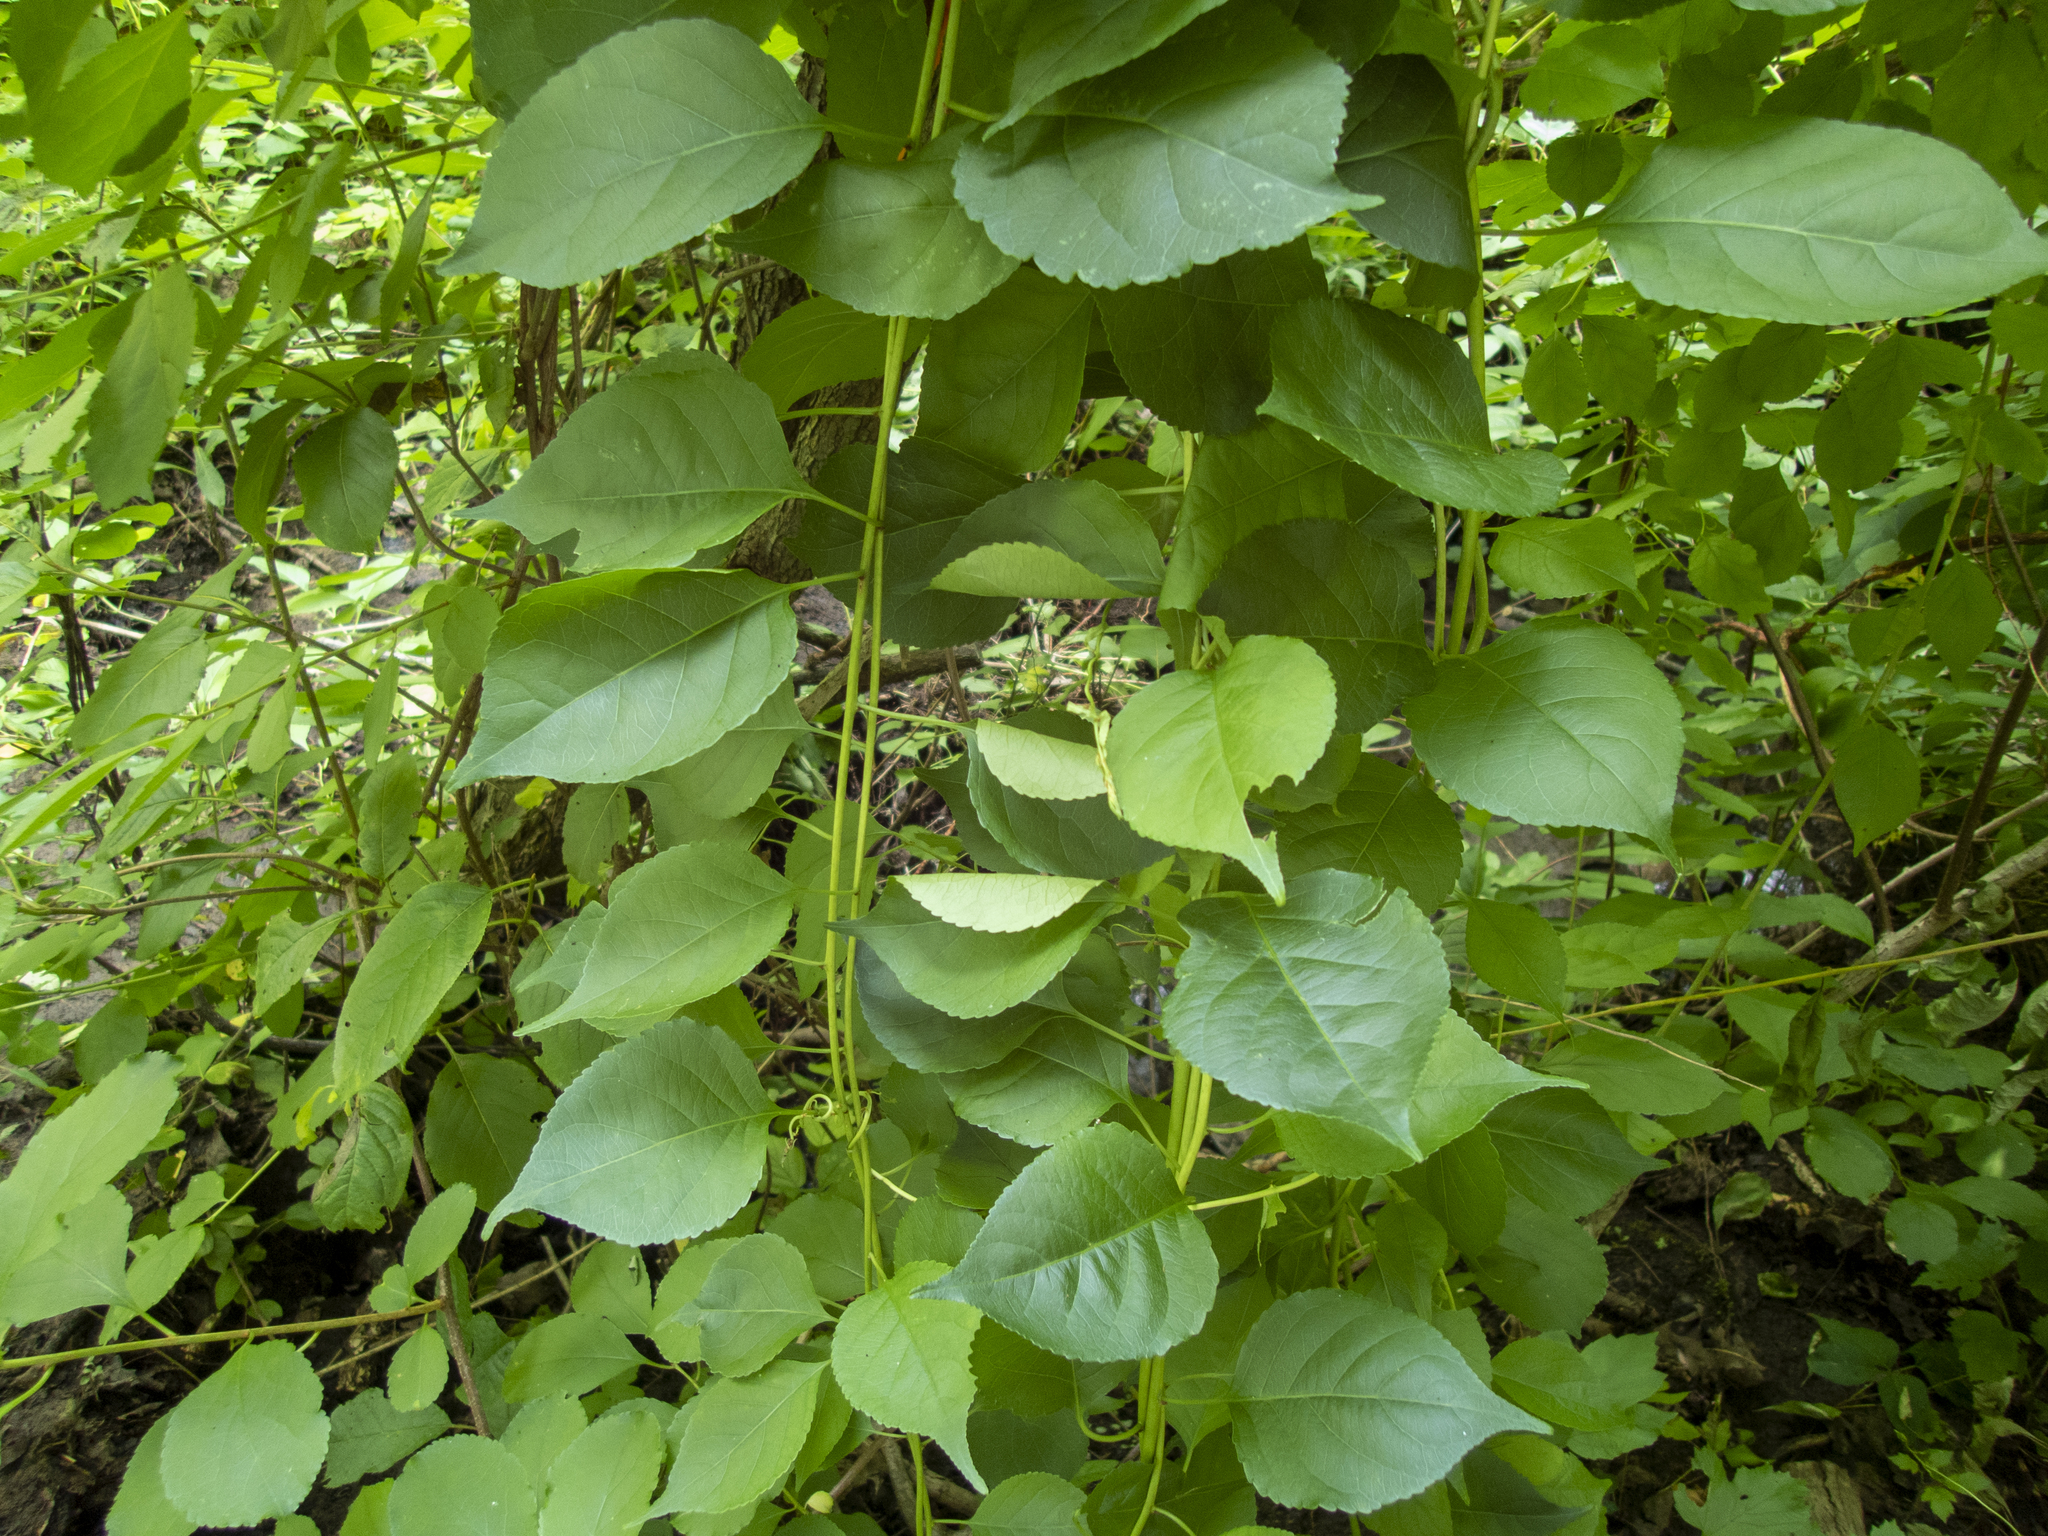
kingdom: Plantae
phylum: Tracheophyta
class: Magnoliopsida
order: Celastrales
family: Celastraceae
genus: Celastrus
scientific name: Celastrus orbiculatus
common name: Oriental bittersweet
